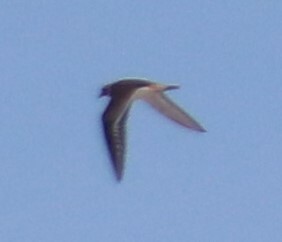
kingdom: Animalia
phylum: Chordata
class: Aves
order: Charadriiformes
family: Charadriidae
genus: Charadrius
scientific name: Charadrius vociferus
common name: Killdeer
